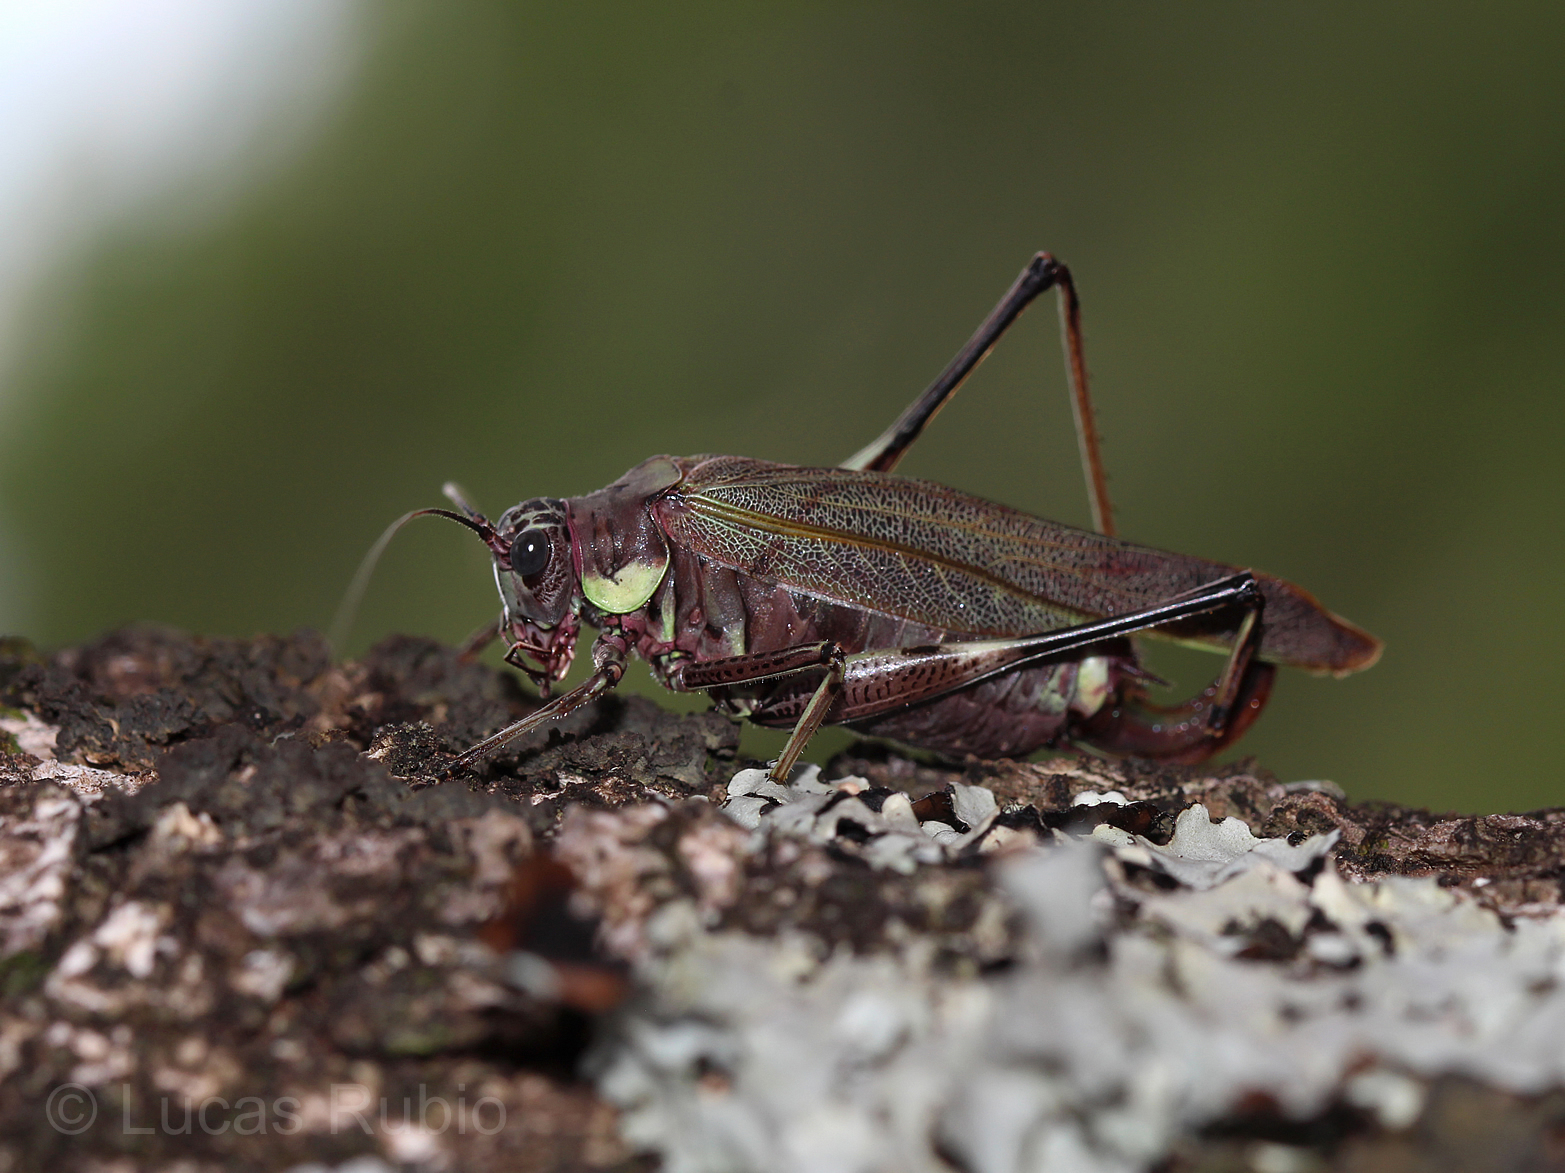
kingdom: Animalia
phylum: Arthropoda
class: Insecta
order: Orthoptera
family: Tettigoniidae
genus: Scaphura
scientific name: Scaphura argentina
